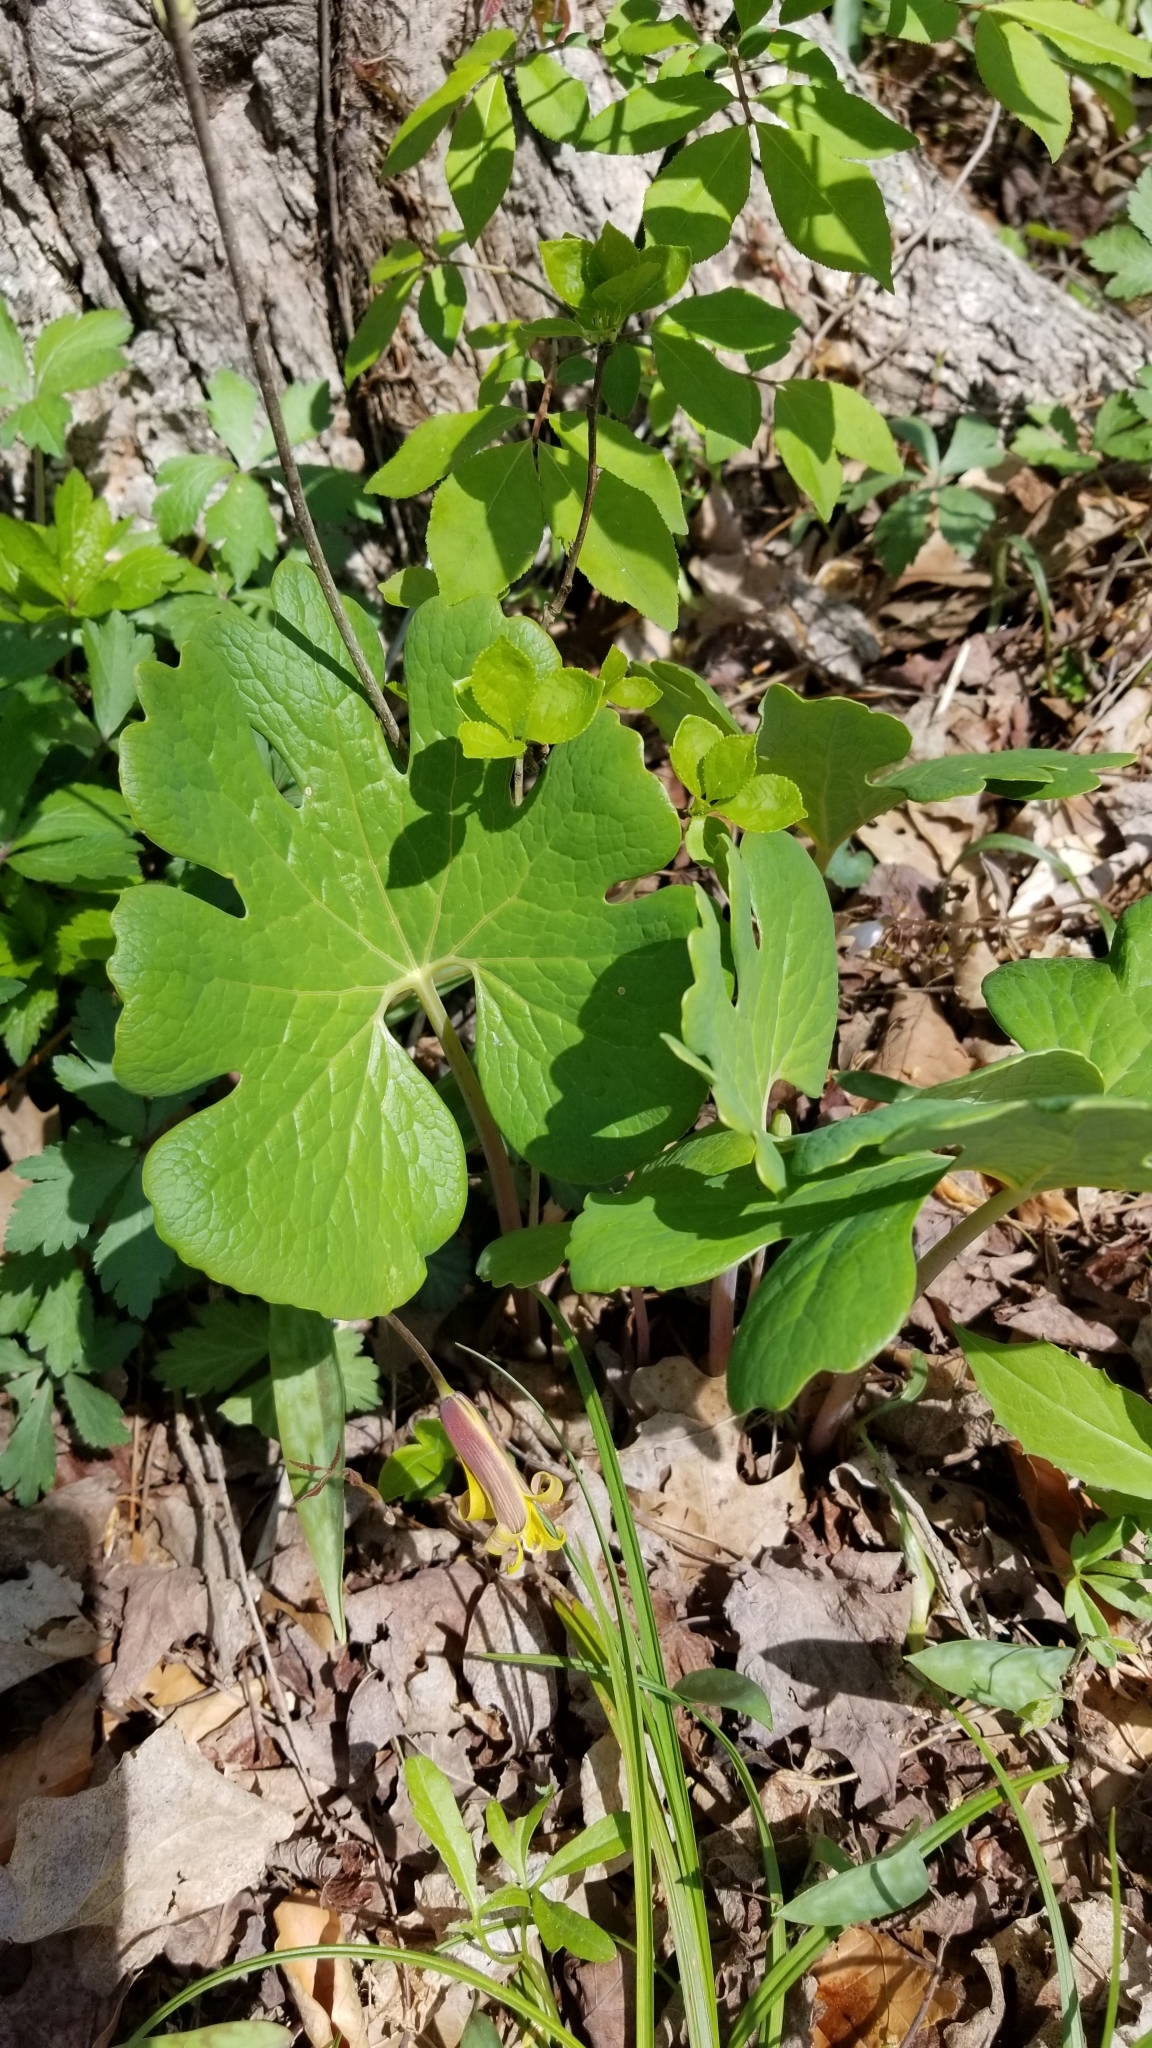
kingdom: Plantae
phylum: Tracheophyta
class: Magnoliopsida
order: Ranunculales
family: Papaveraceae
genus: Sanguinaria
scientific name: Sanguinaria canadensis
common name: Bloodroot
